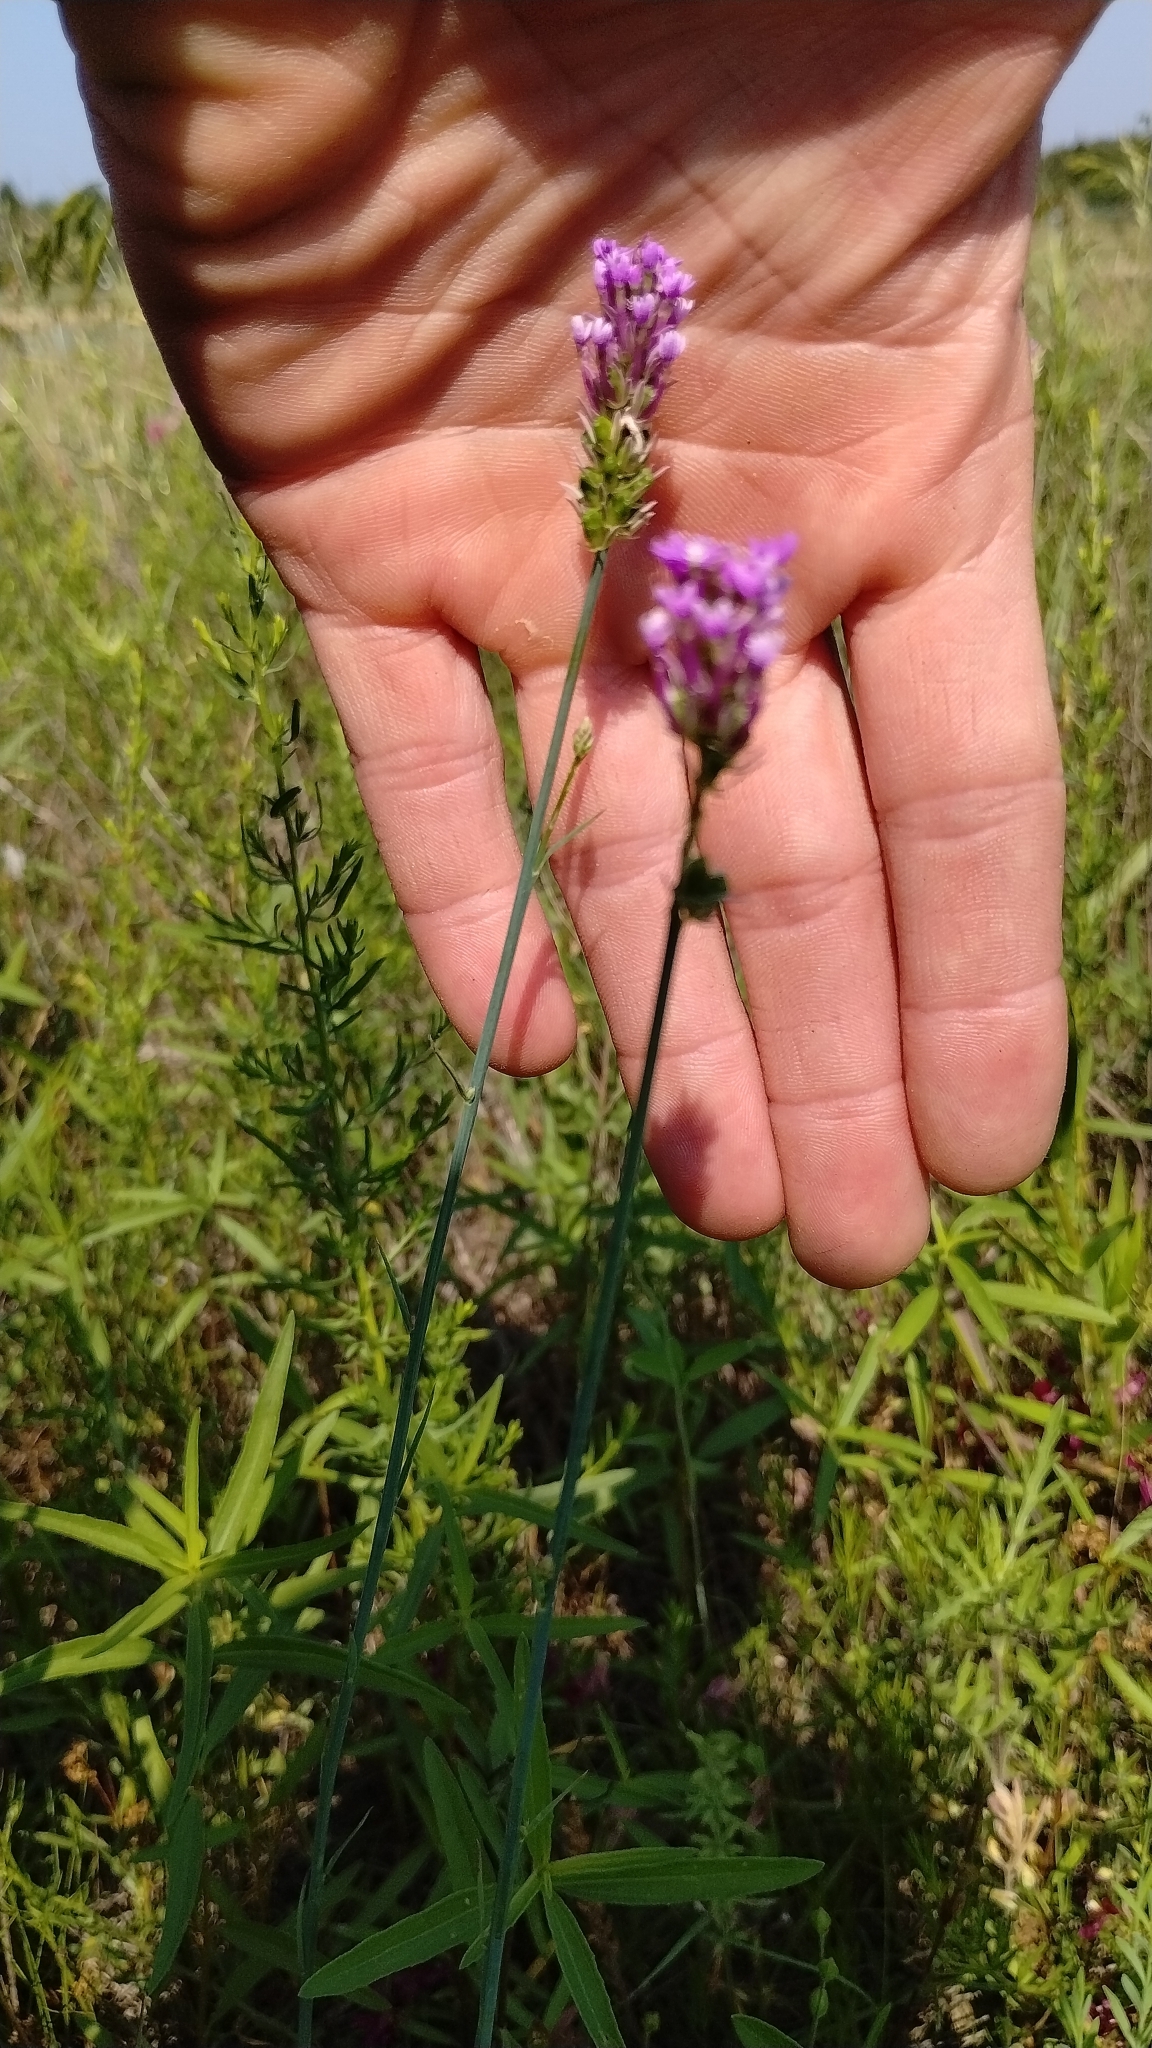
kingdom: Plantae
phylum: Tracheophyta
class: Magnoliopsida
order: Fabales
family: Polygalaceae
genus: Polygala
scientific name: Polygala incarnata
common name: Pink milkwort
